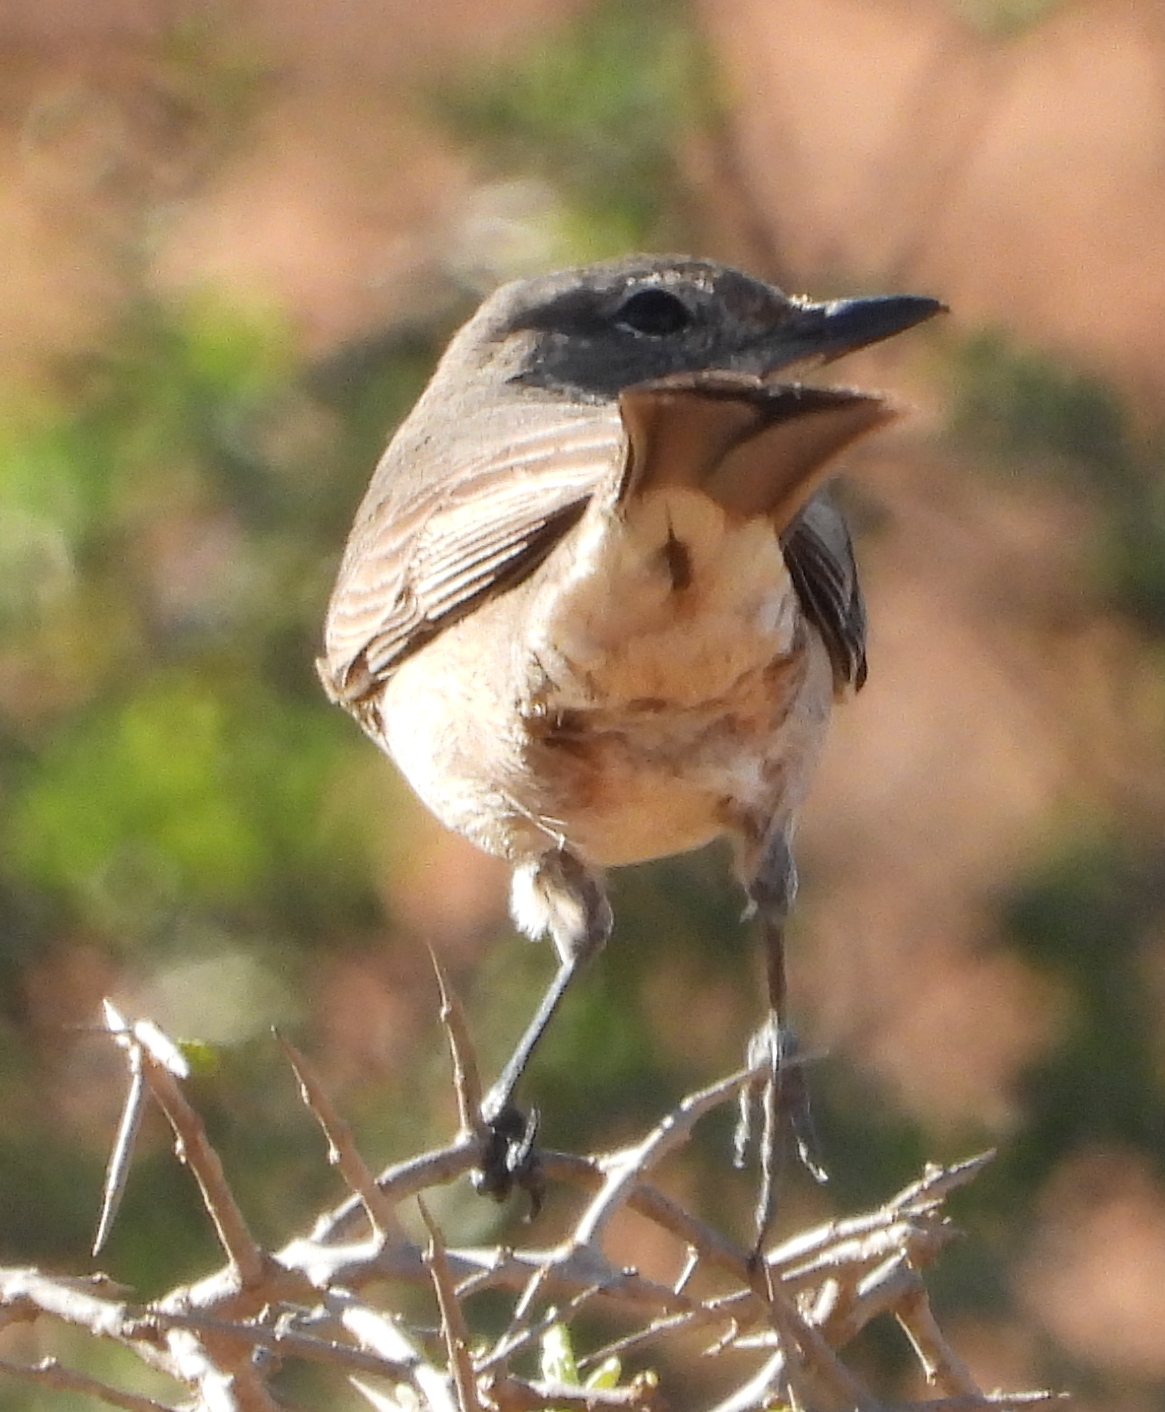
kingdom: Animalia
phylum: Chordata
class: Aves
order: Passeriformes
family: Muscicapidae
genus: Bradornis
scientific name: Bradornis infuscatus
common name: Chat flycatcher
